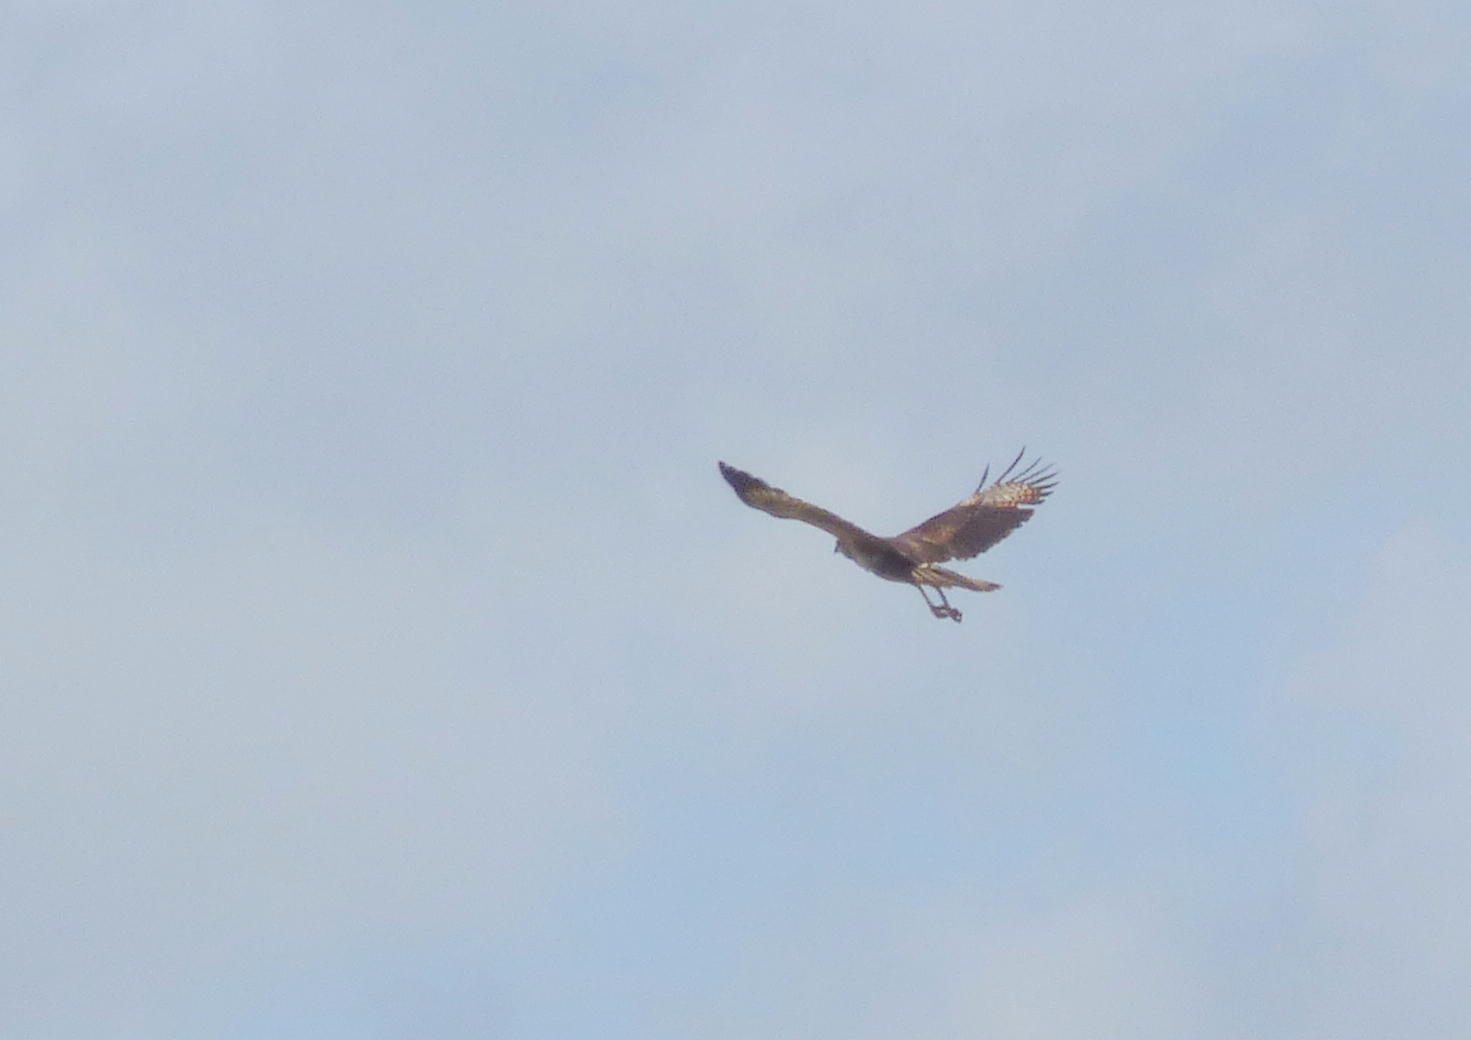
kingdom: Animalia
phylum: Chordata
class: Aves
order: Accipitriformes
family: Accipitridae
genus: Buteogallus
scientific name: Buteogallus urubitinga
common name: Great black hawk
